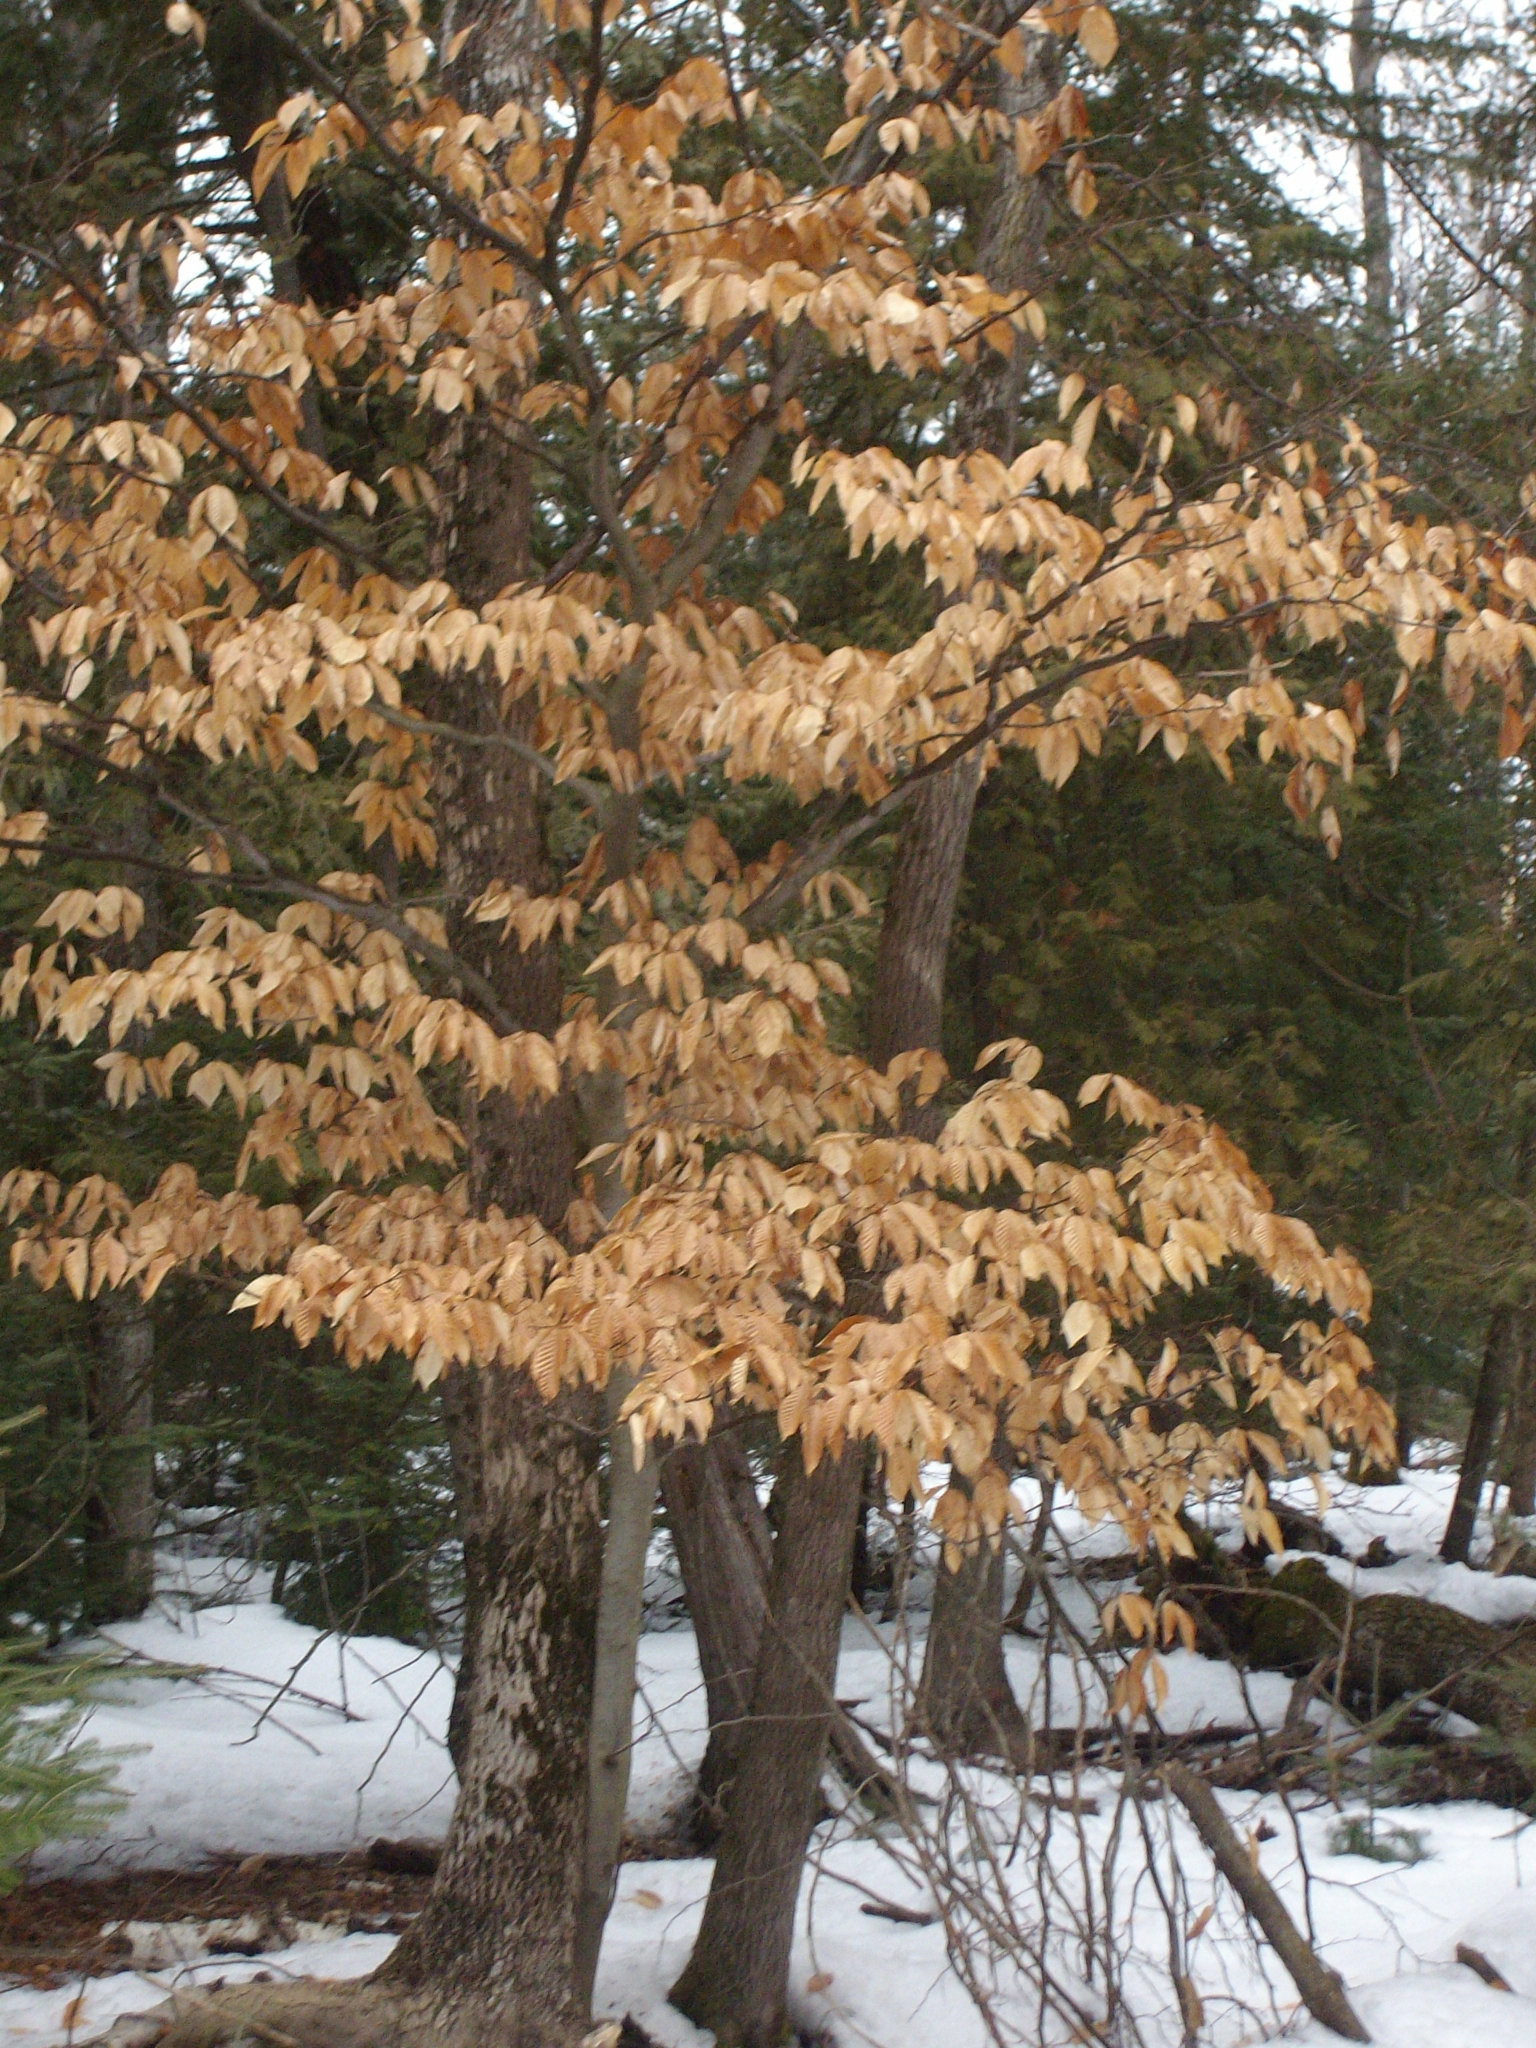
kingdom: Plantae
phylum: Tracheophyta
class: Magnoliopsida
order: Fagales
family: Fagaceae
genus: Fagus
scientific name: Fagus grandifolia
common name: American beech
